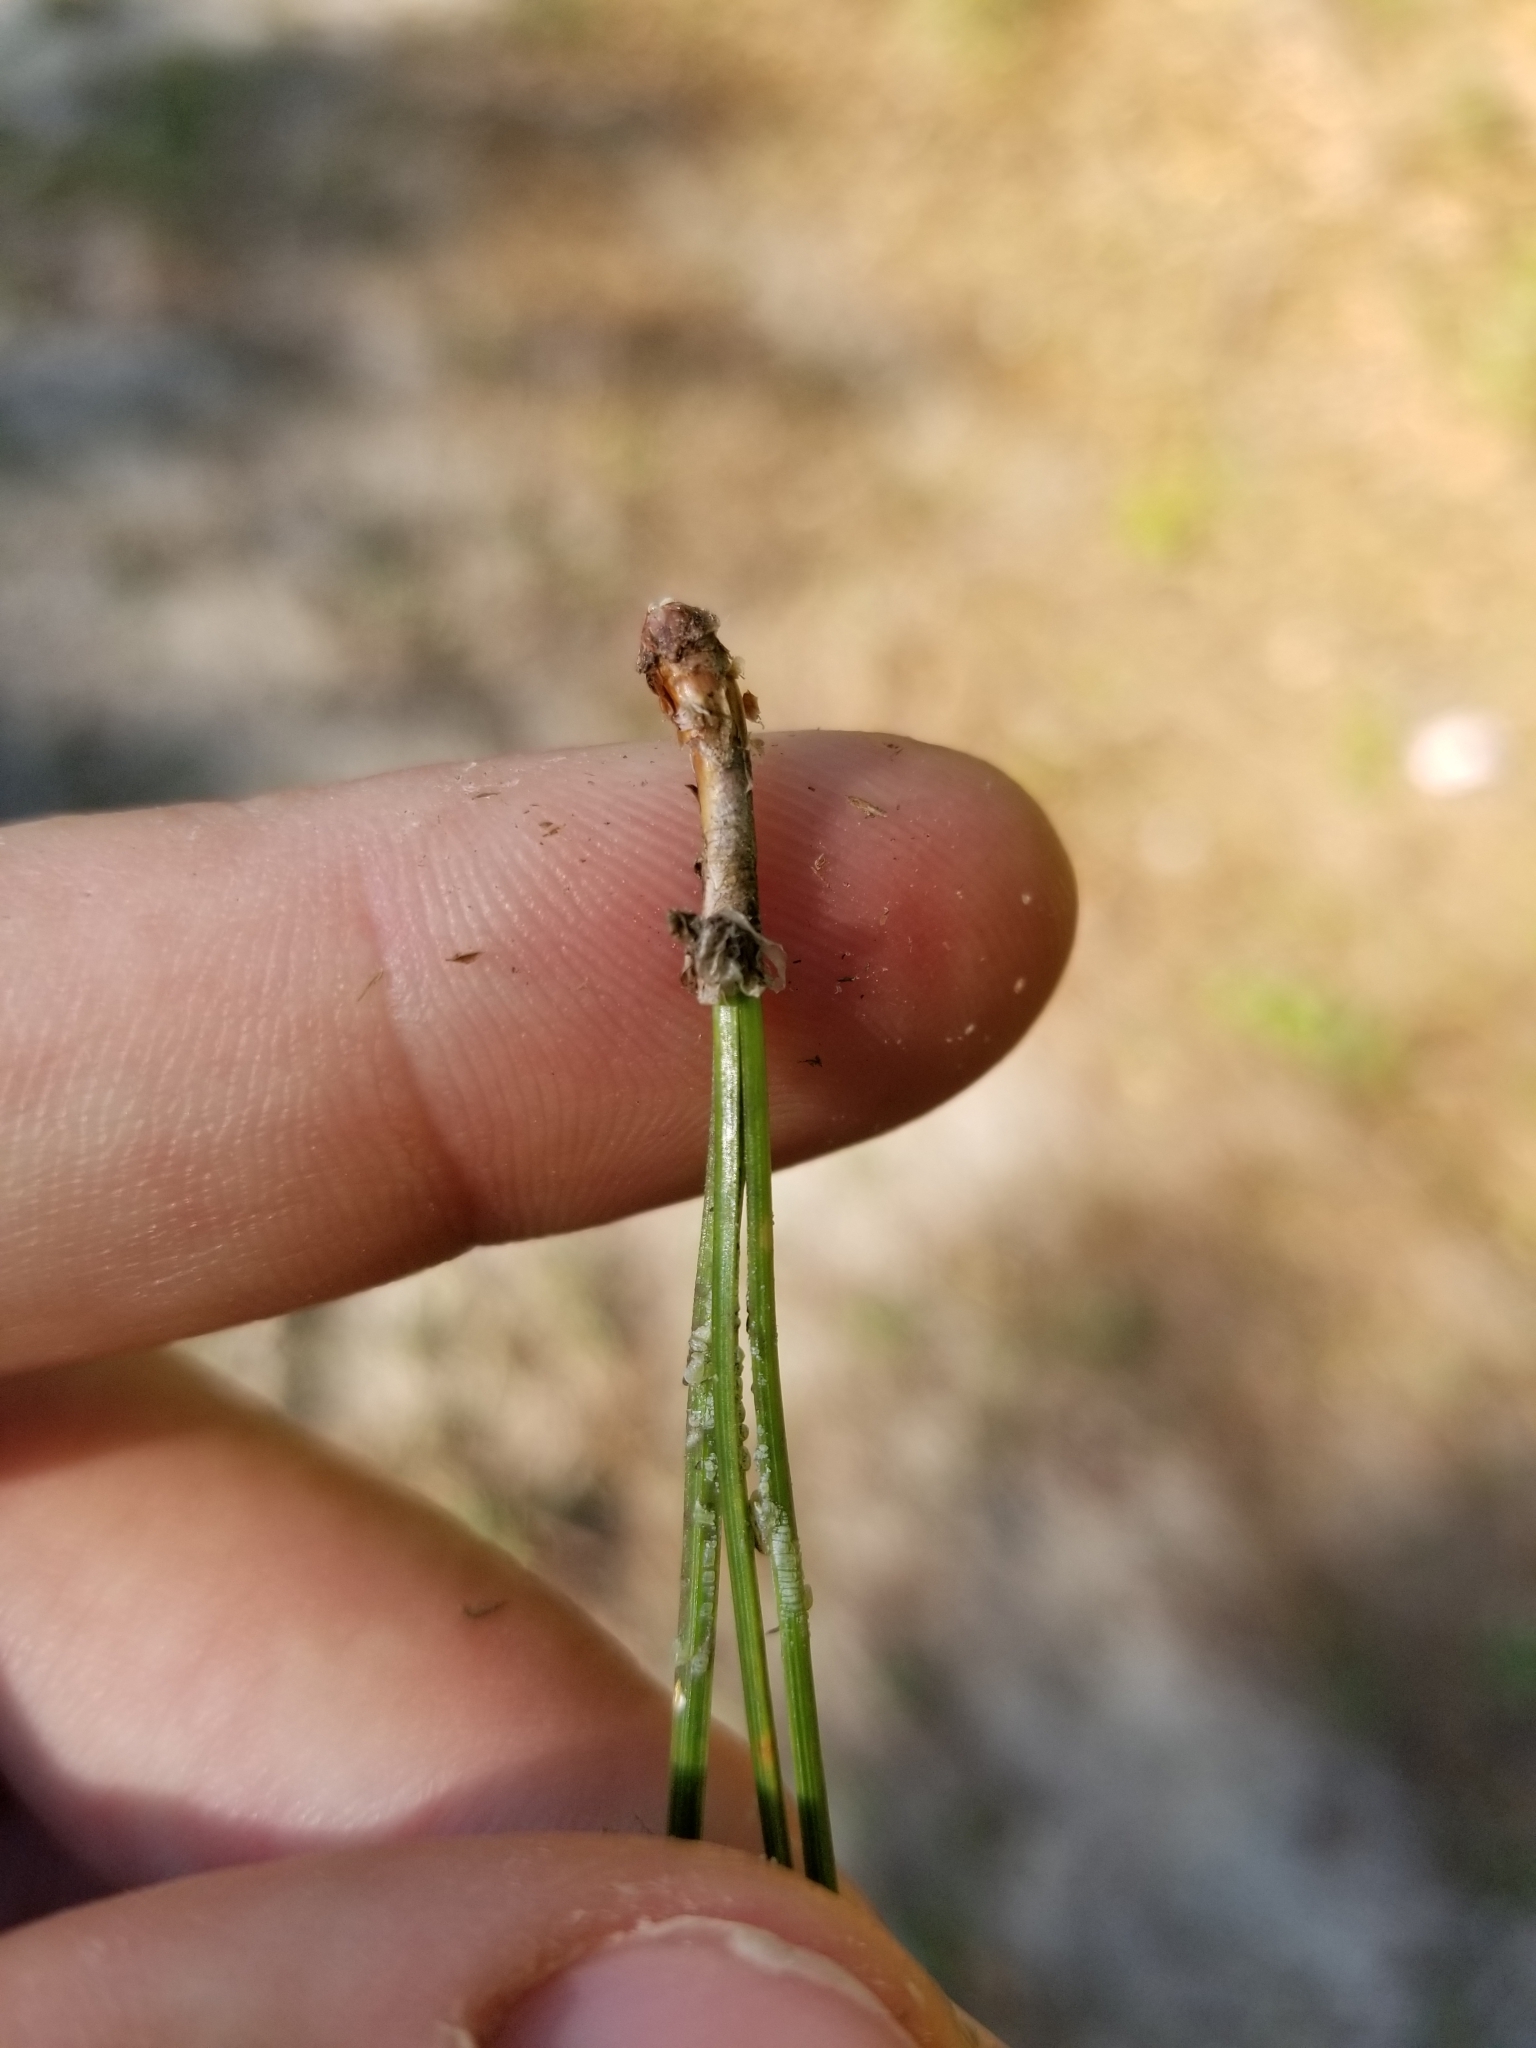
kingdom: Plantae
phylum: Tracheophyta
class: Pinopsida
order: Pinales
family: Pinaceae
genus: Pinus
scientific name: Pinus palustris
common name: Longleaf pine
